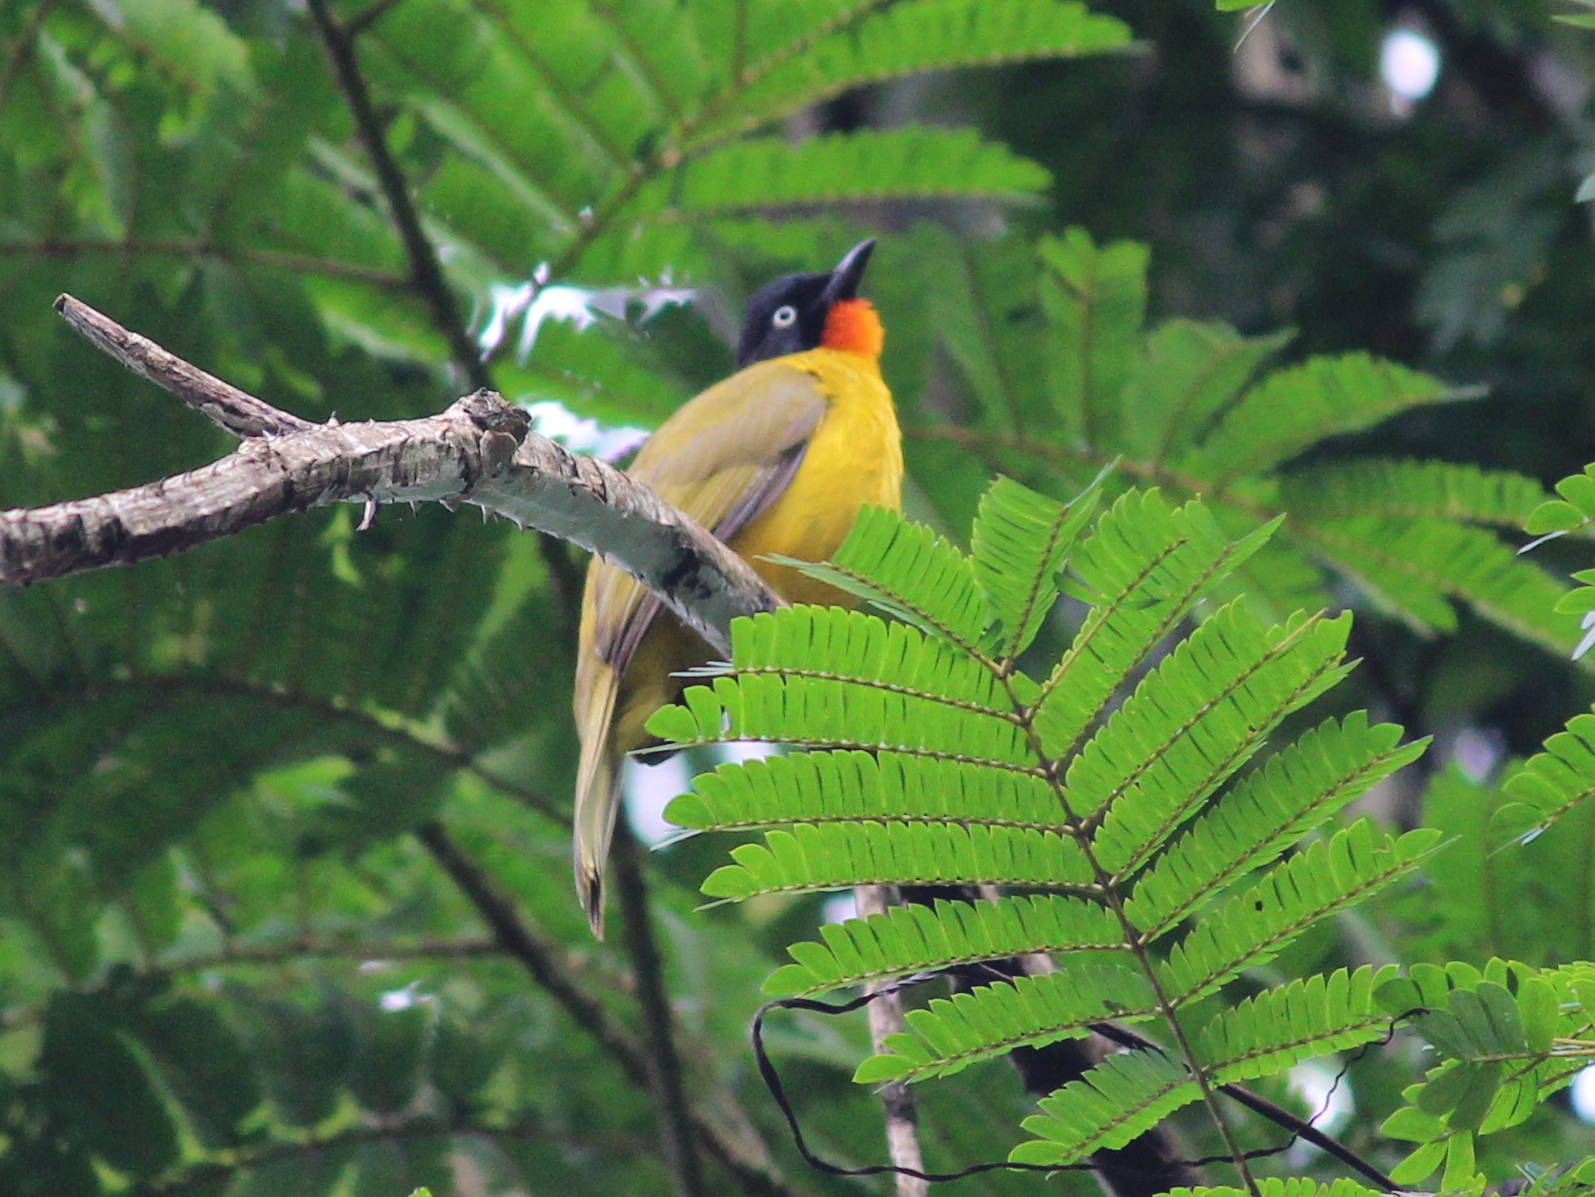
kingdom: Animalia
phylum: Chordata
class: Aves
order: Passeriformes
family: Pycnonotidae
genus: Pycnonotus
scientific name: Pycnonotus gularis
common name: Flame-throated bulbul
